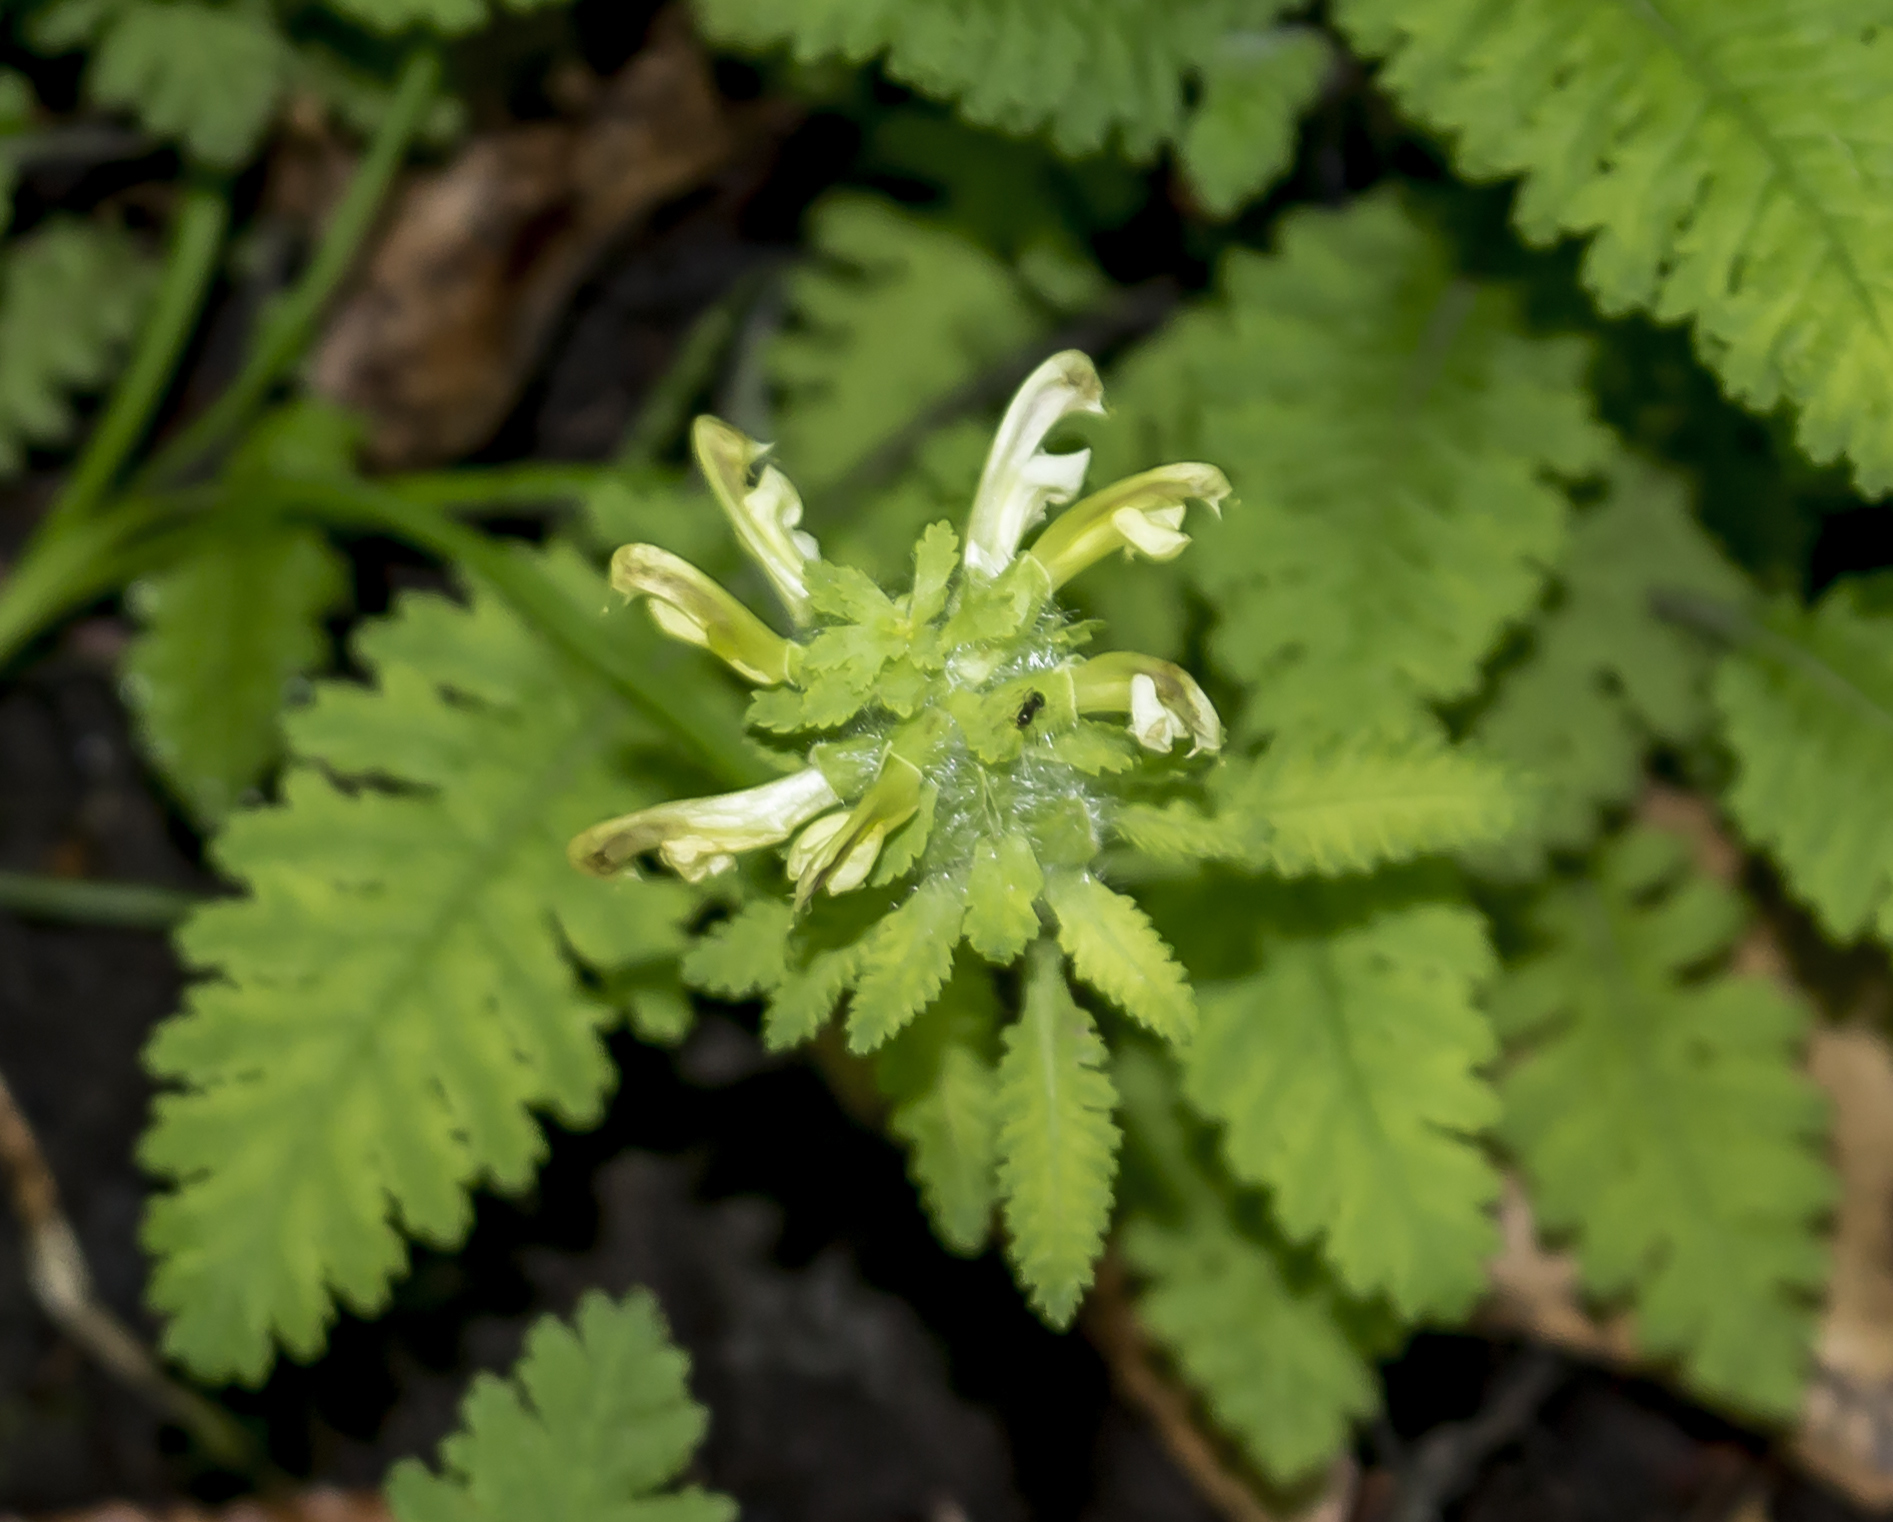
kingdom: Plantae
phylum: Tracheophyta
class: Magnoliopsida
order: Lamiales
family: Orobanchaceae
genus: Pedicularis
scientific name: Pedicularis canadensis
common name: Early lousewort
